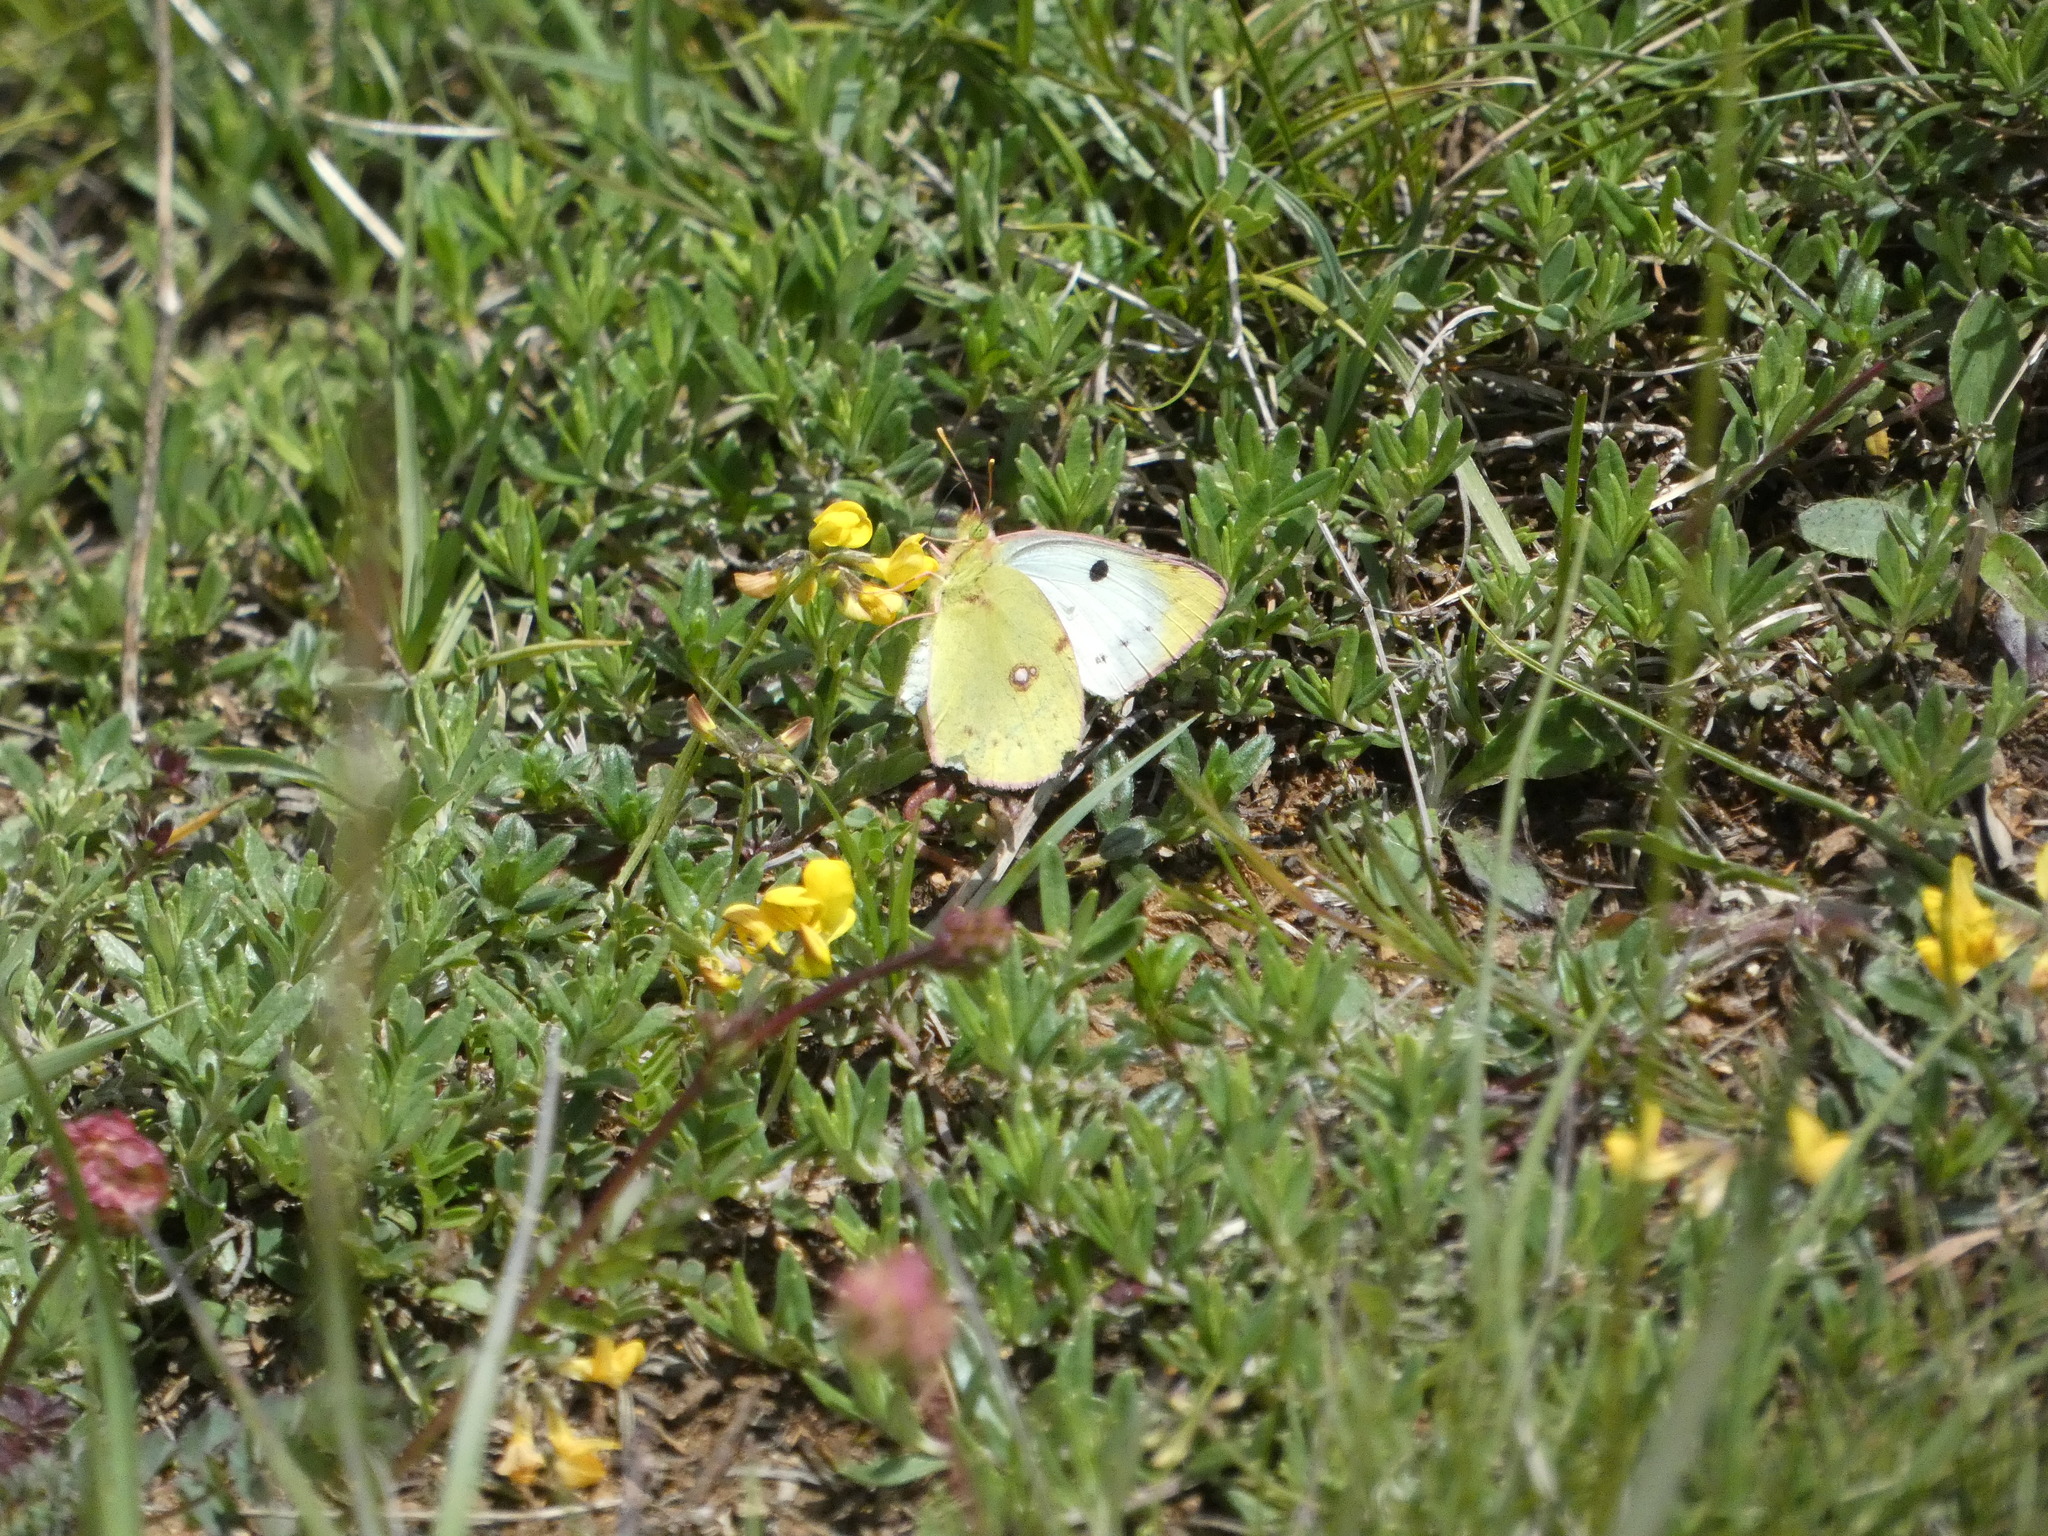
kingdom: Animalia
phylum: Arthropoda
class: Insecta
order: Lepidoptera
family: Pieridae
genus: Colias
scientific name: Colias alfacariensis
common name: Berger's clouded yellow
